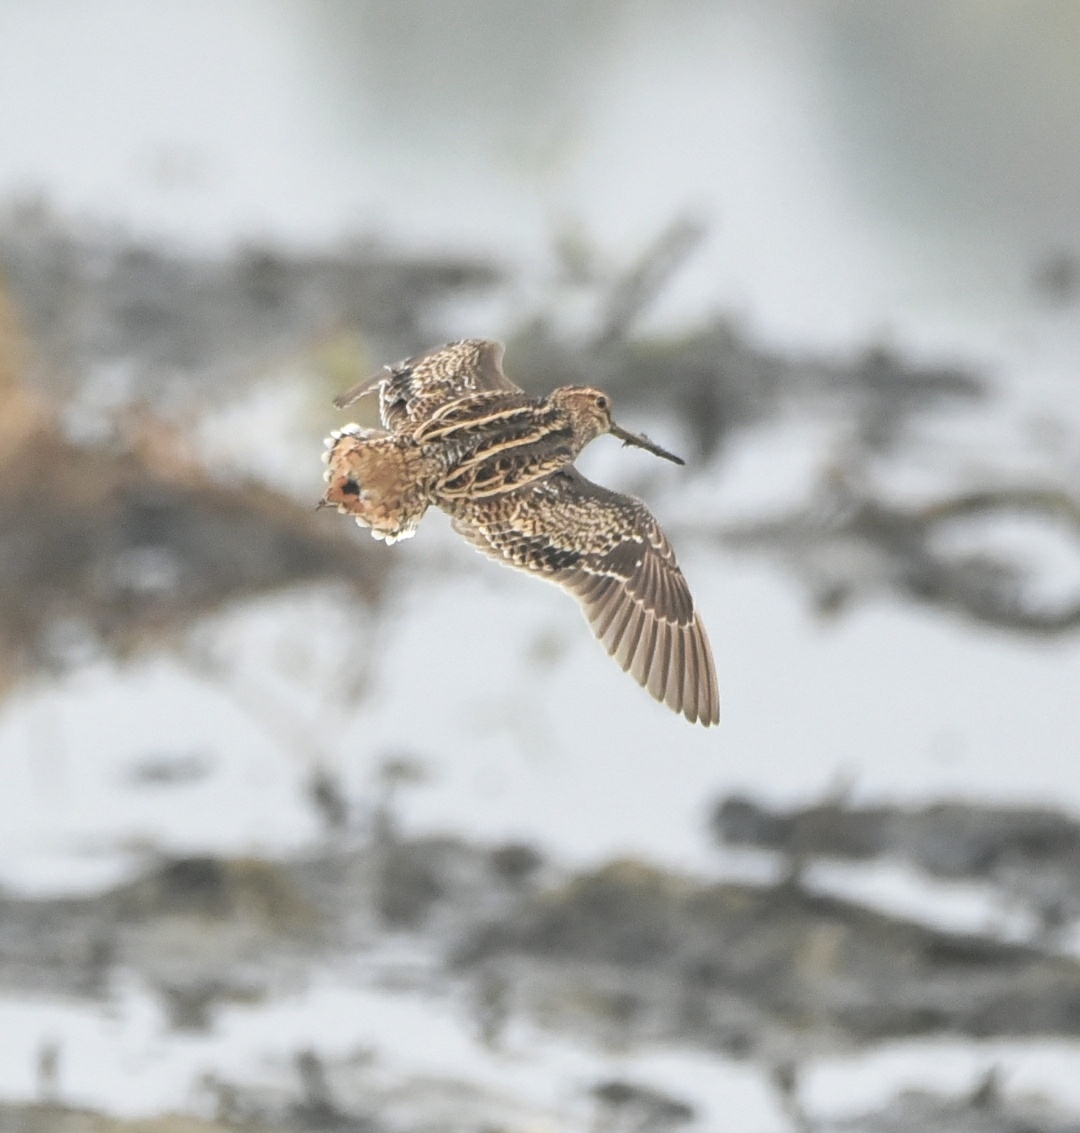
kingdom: Animalia
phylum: Chordata
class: Aves
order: Charadriiformes
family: Scolopacidae
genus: Gallinago
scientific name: Gallinago stenura
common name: Pin-tailed snipe
